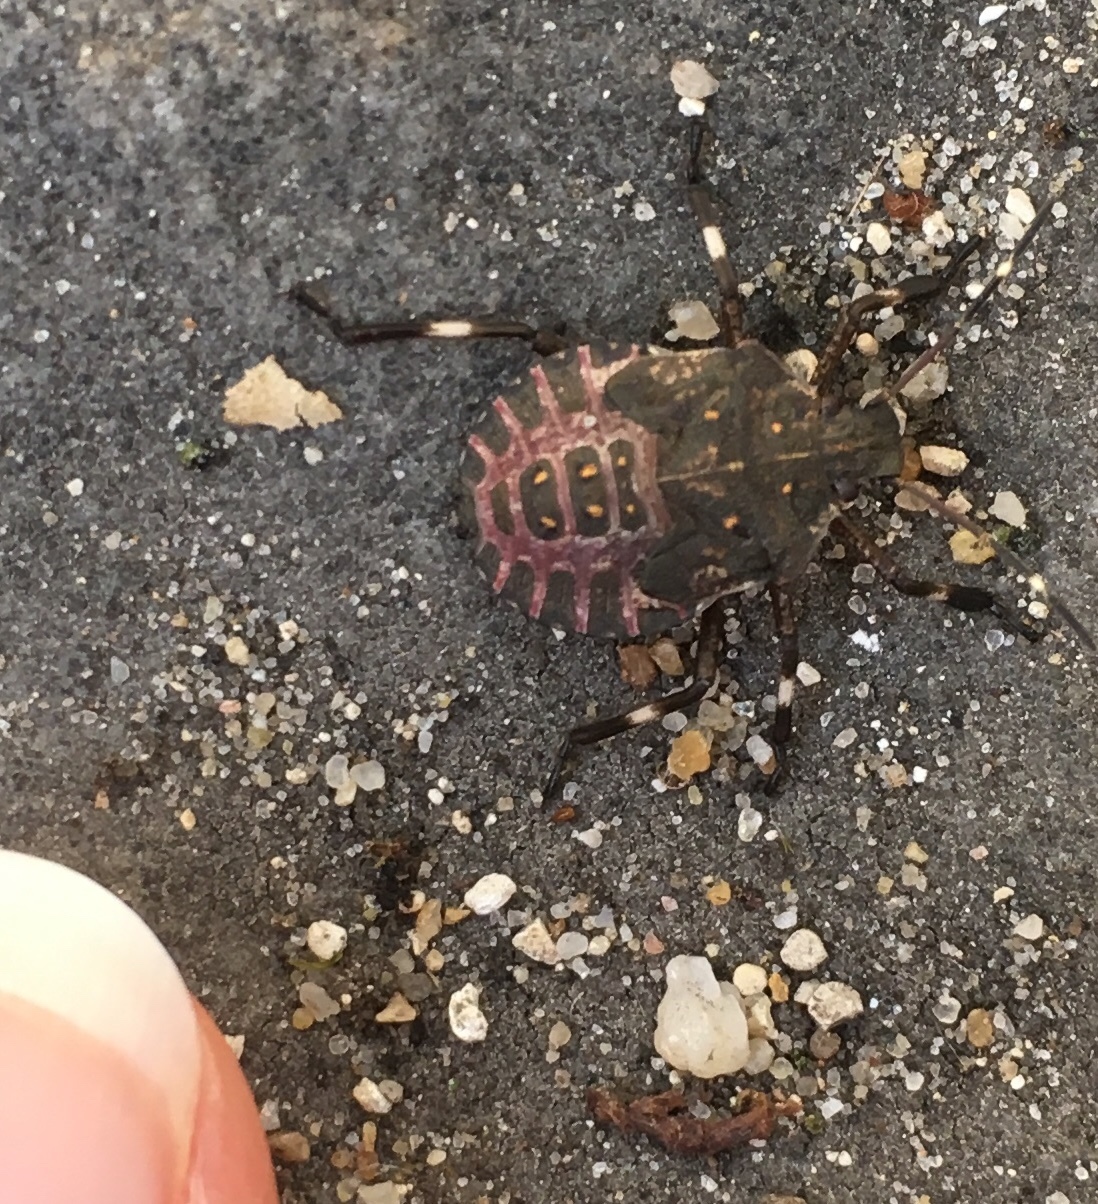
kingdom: Animalia
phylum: Arthropoda
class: Insecta
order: Hemiptera
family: Pentatomidae
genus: Halyomorpha
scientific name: Halyomorpha halys
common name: Brown marmorated stink bug
